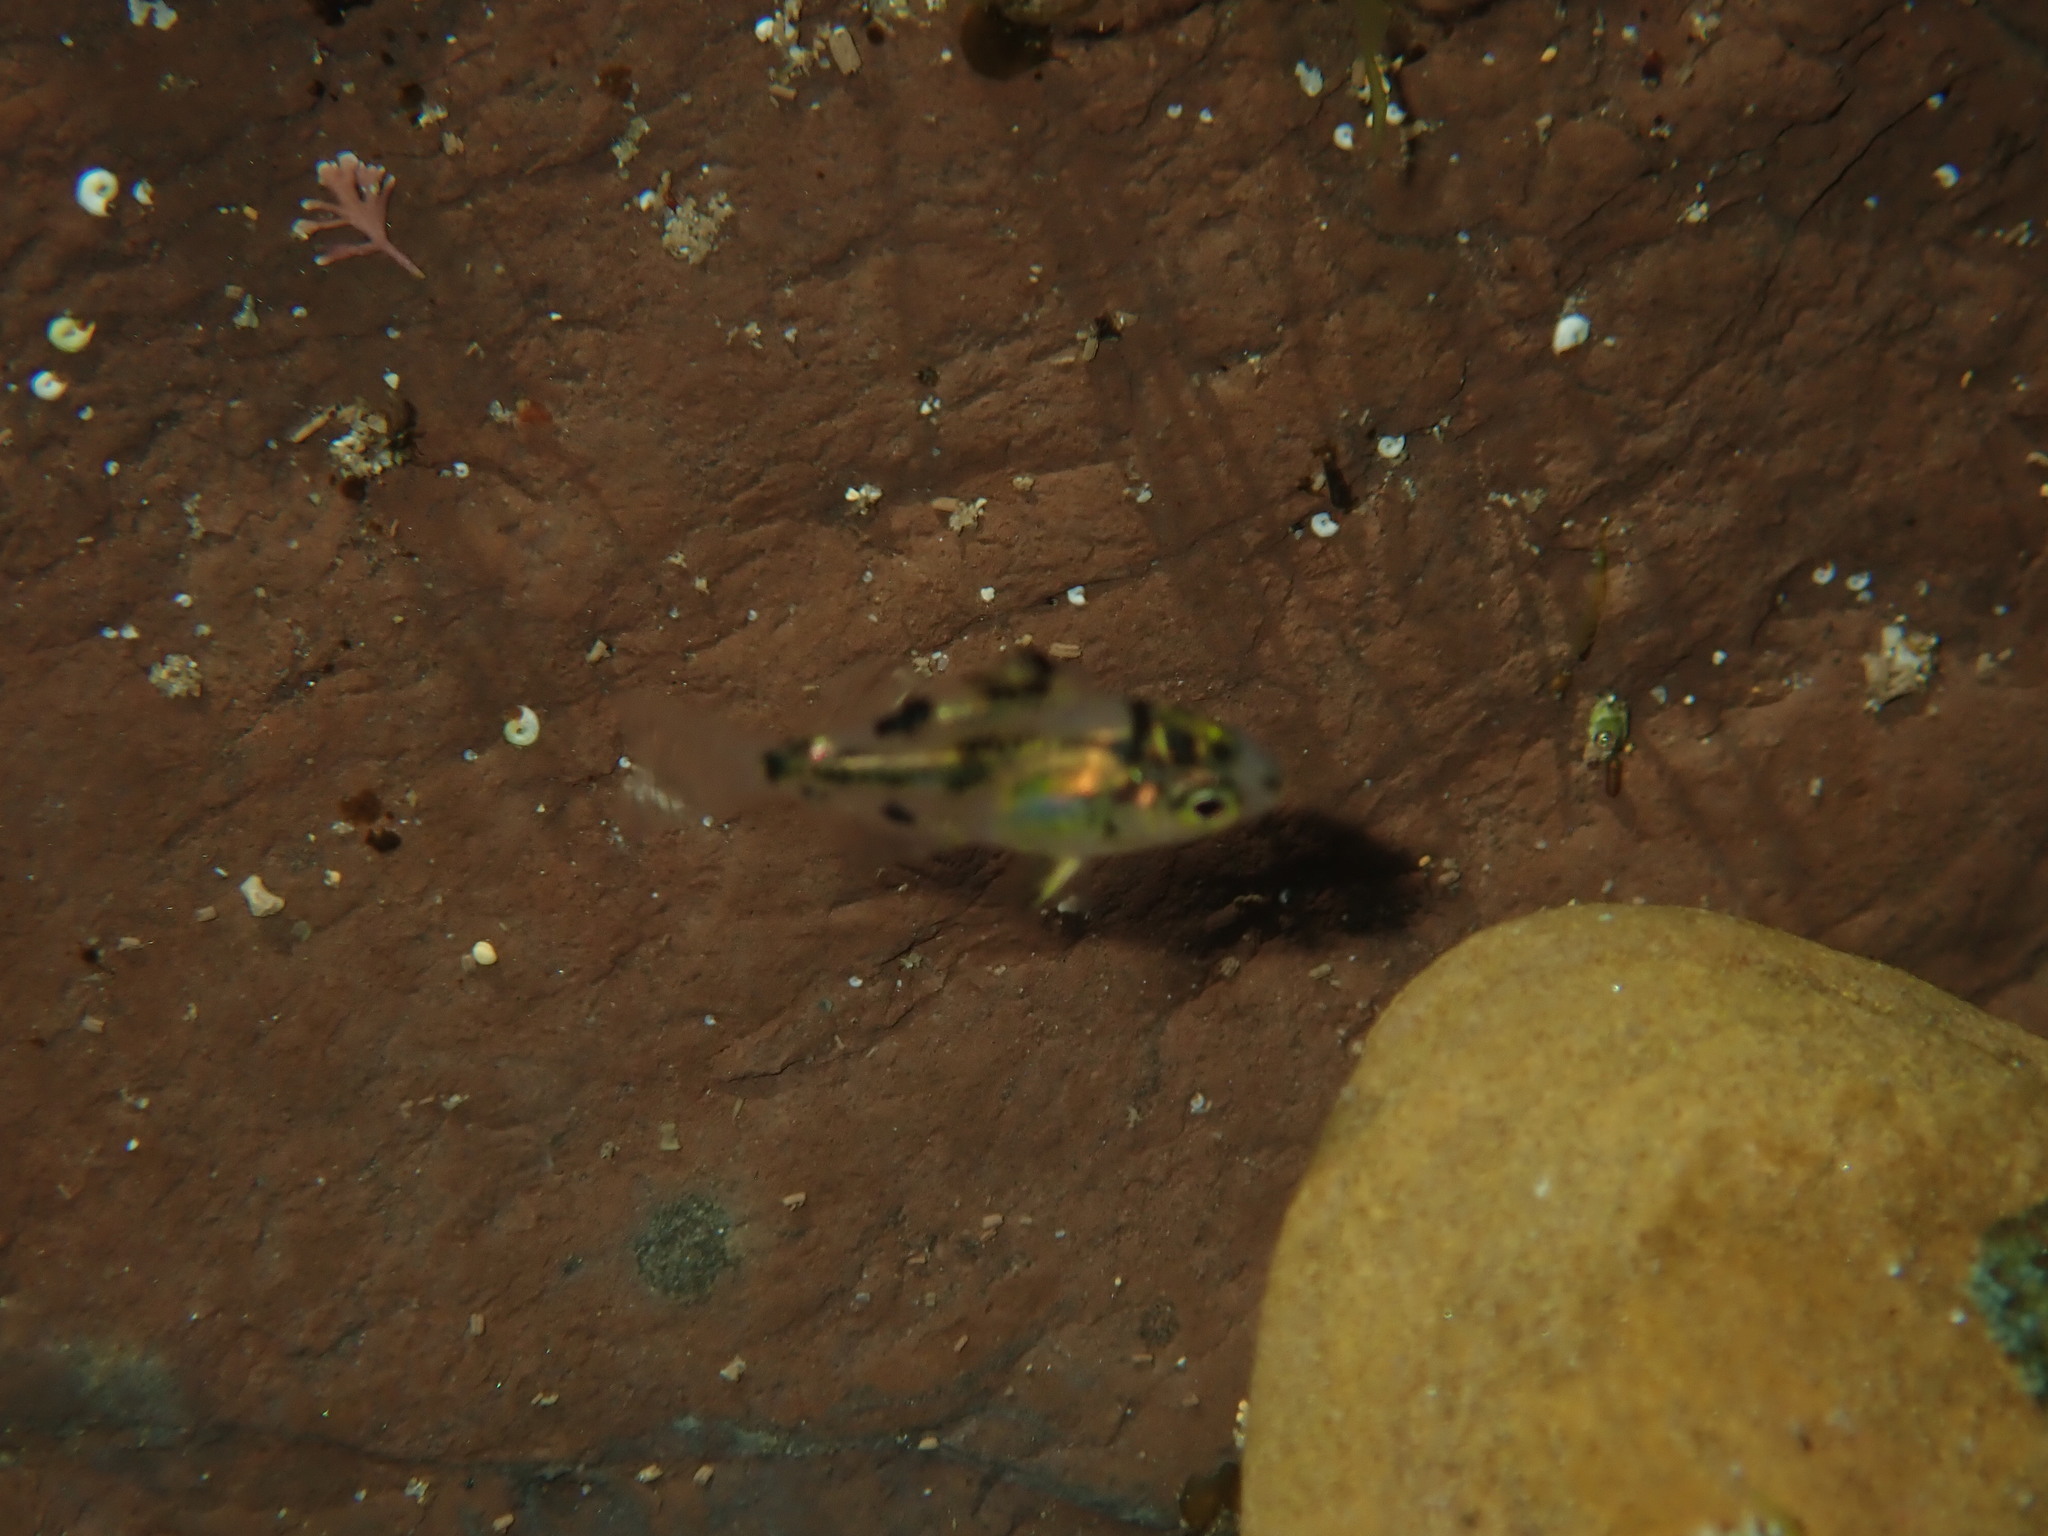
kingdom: Animalia
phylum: Chordata
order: Perciformes
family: Kyphosidae
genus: Microcanthus
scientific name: Microcanthus joyceae
